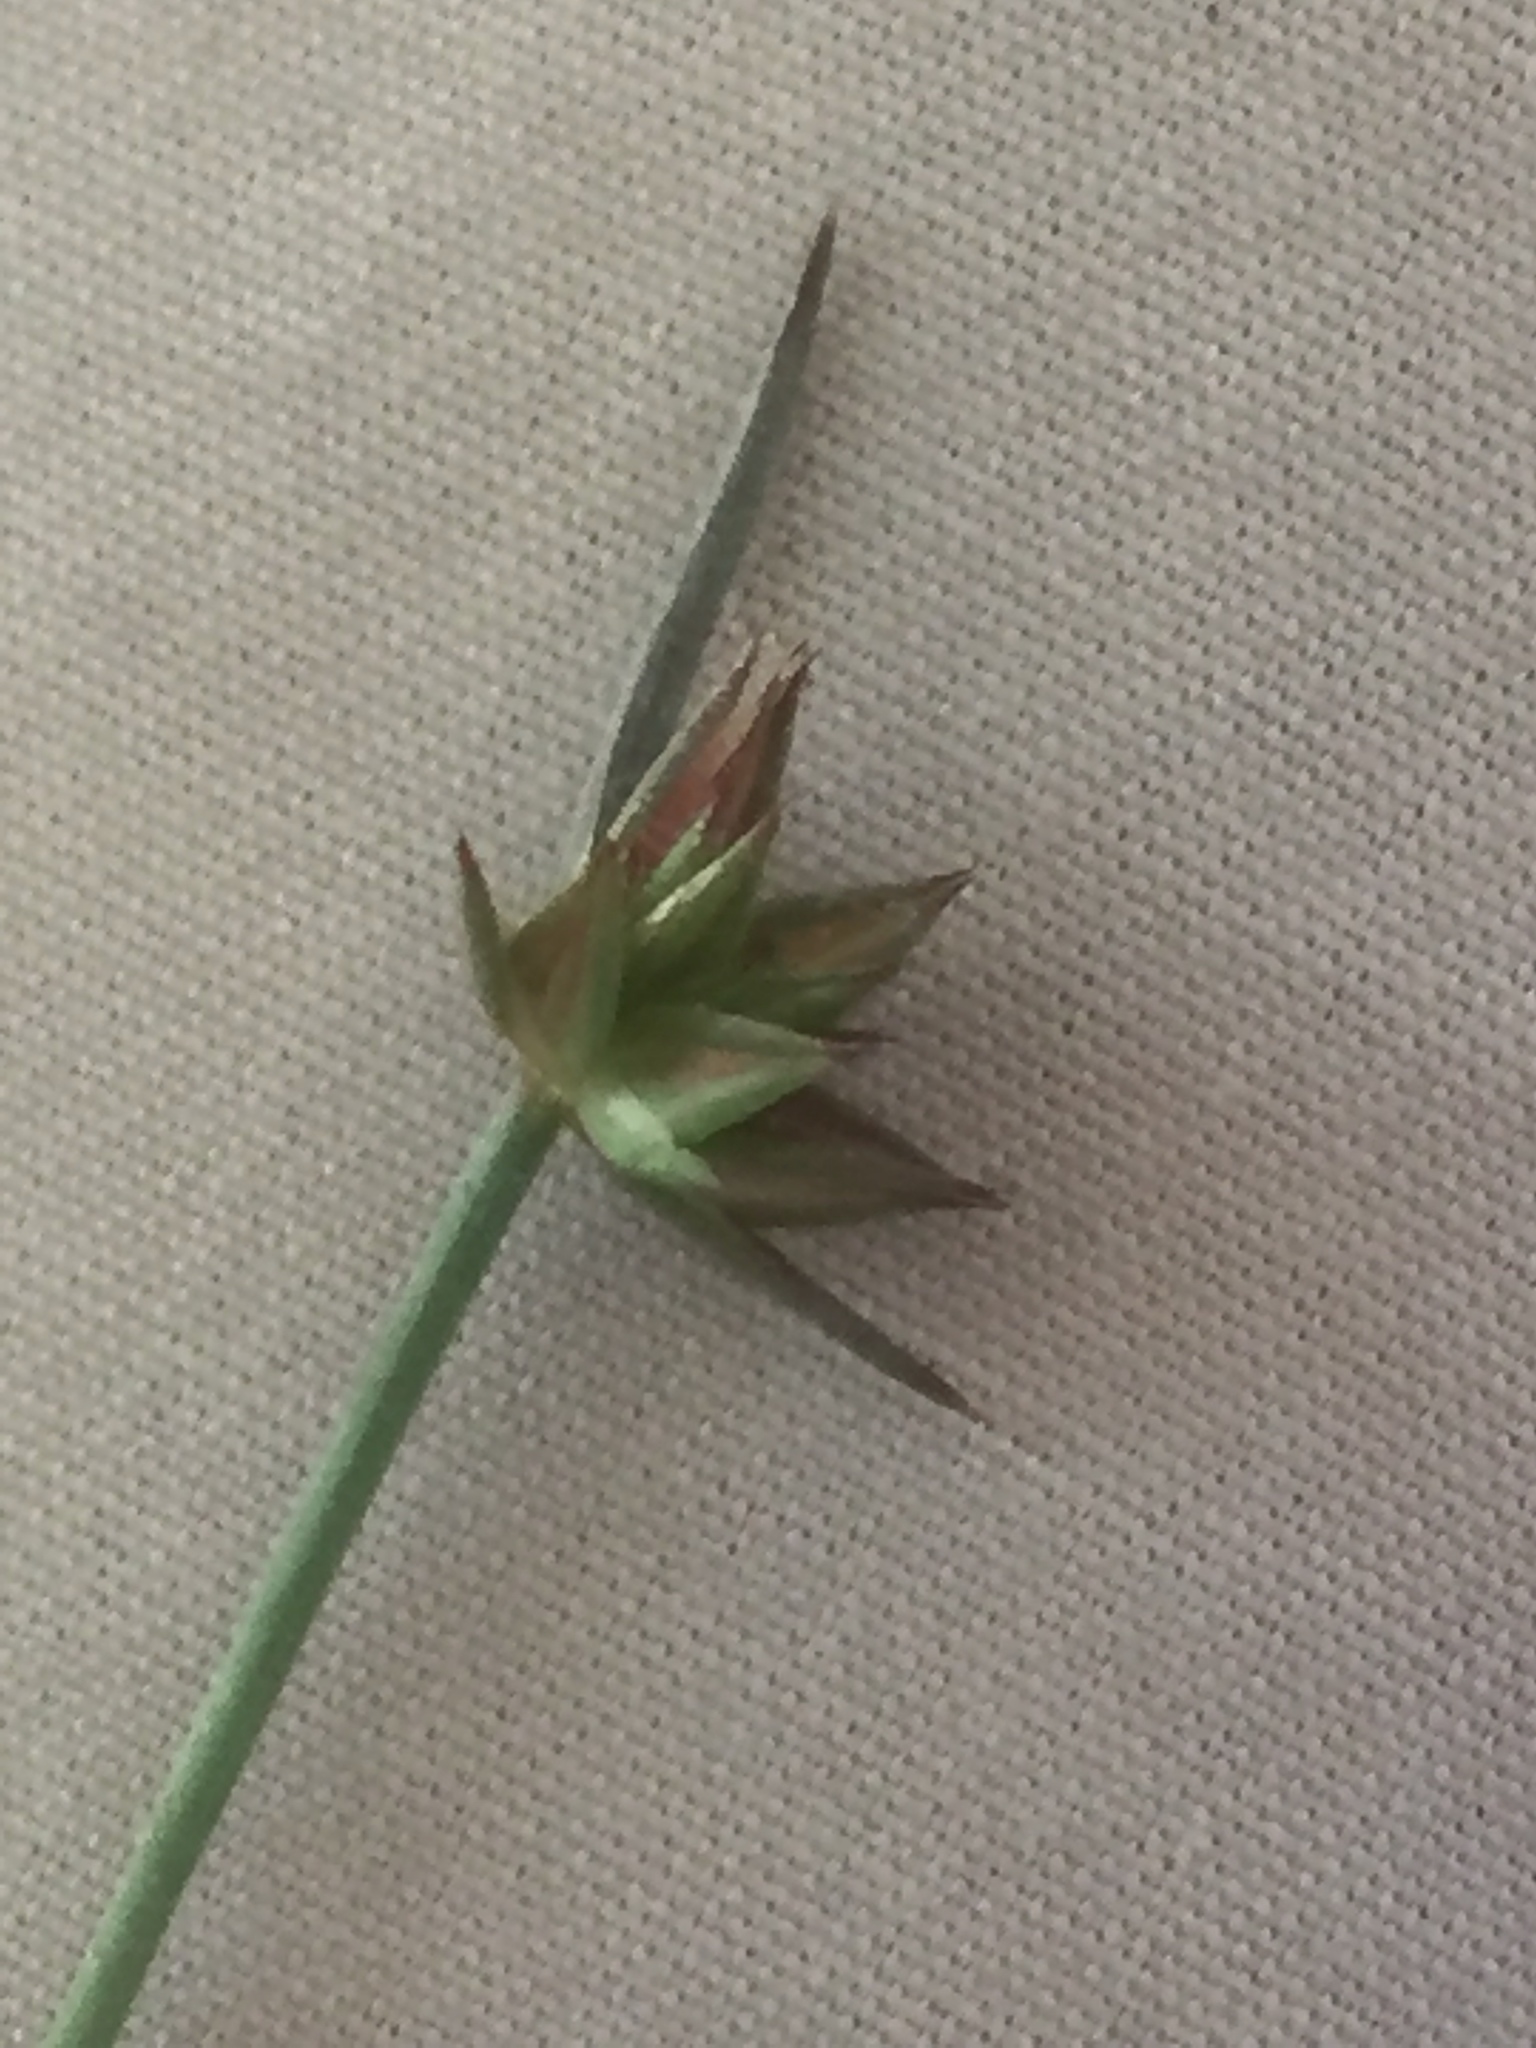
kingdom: Plantae
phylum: Tracheophyta
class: Liliopsida
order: Poales
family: Juncaceae
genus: Juncus
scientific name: Juncus capitatus
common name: Dwarf rush
